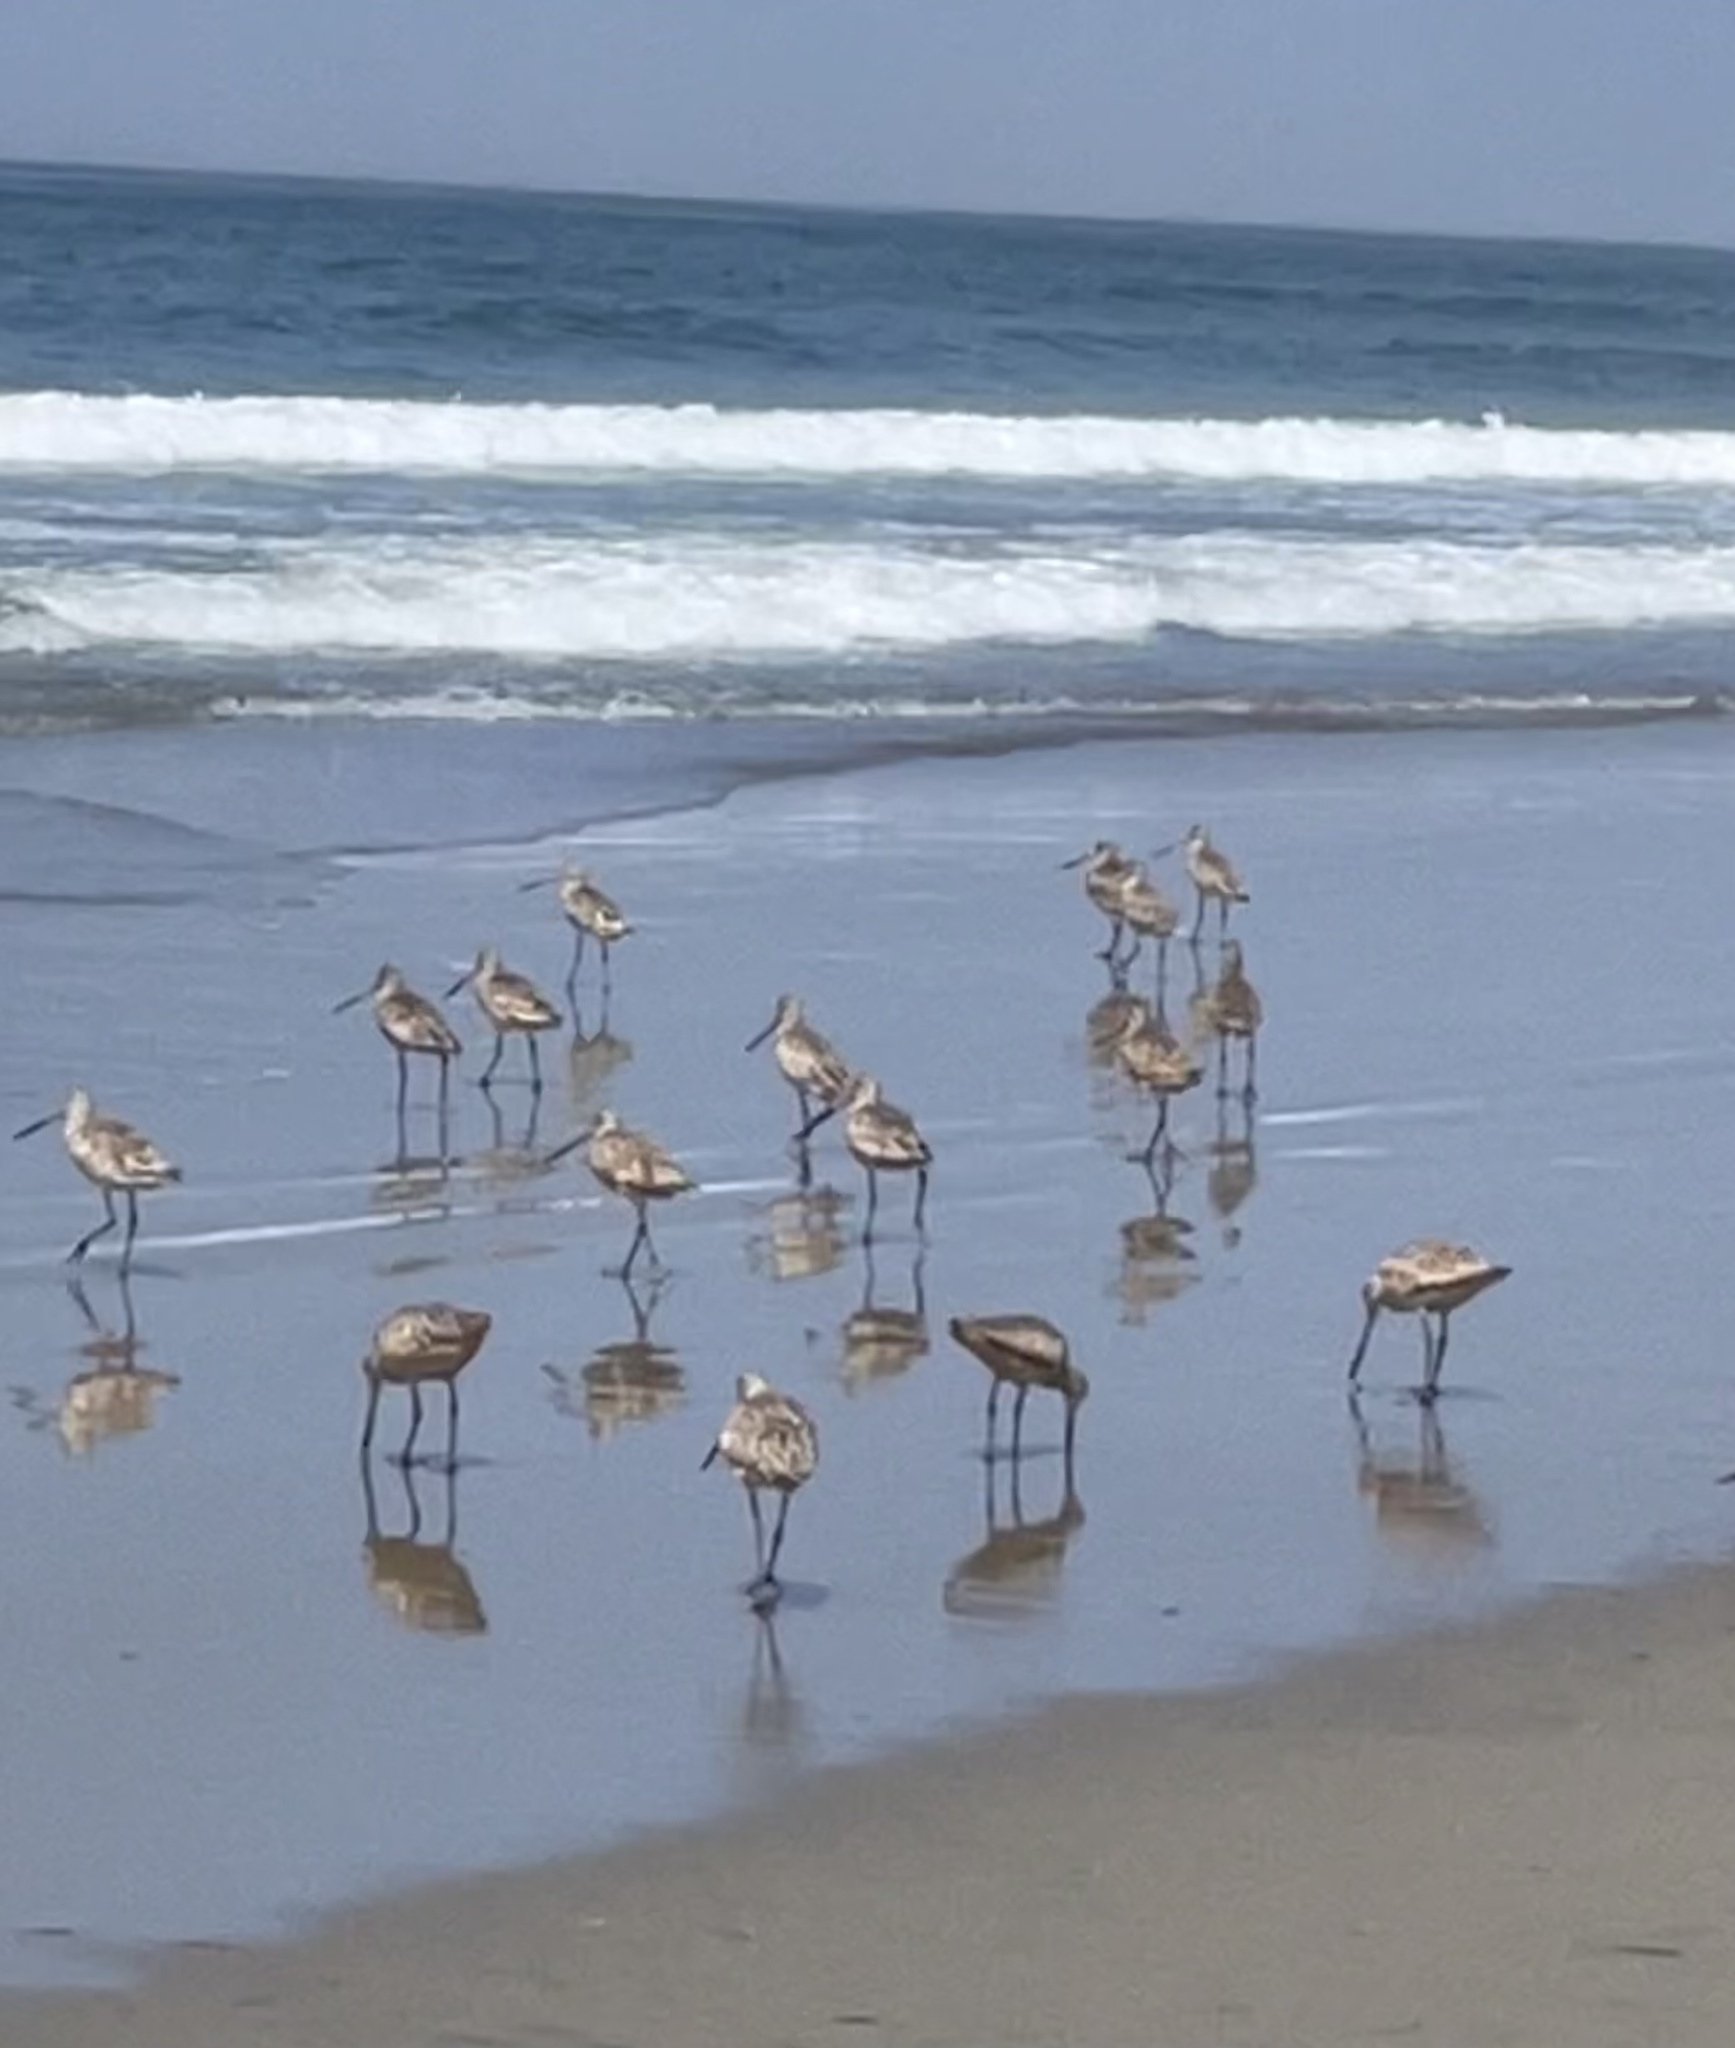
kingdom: Animalia
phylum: Chordata
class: Aves
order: Charadriiformes
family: Scolopacidae
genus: Limosa
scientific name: Limosa fedoa
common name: Marbled godwit
